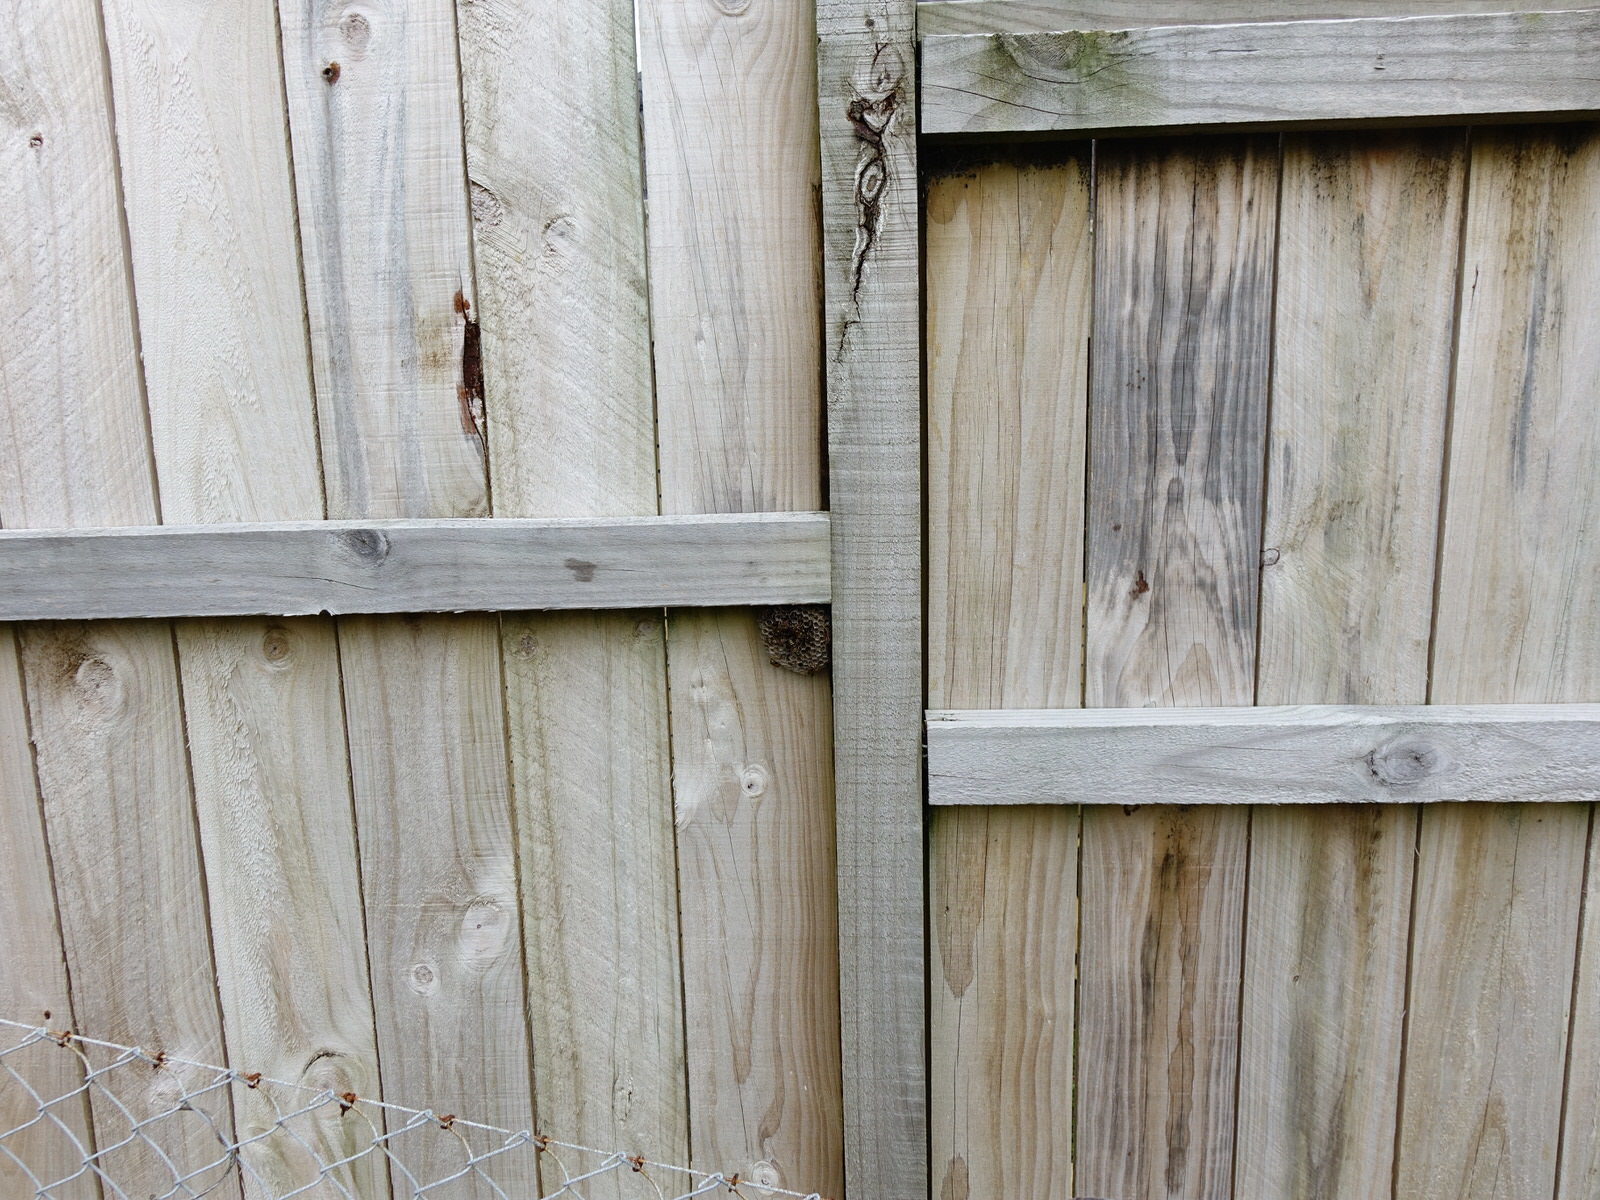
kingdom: Animalia
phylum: Arthropoda
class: Insecta
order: Hymenoptera
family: Eumenidae
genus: Polistes
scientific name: Polistes chinensis
